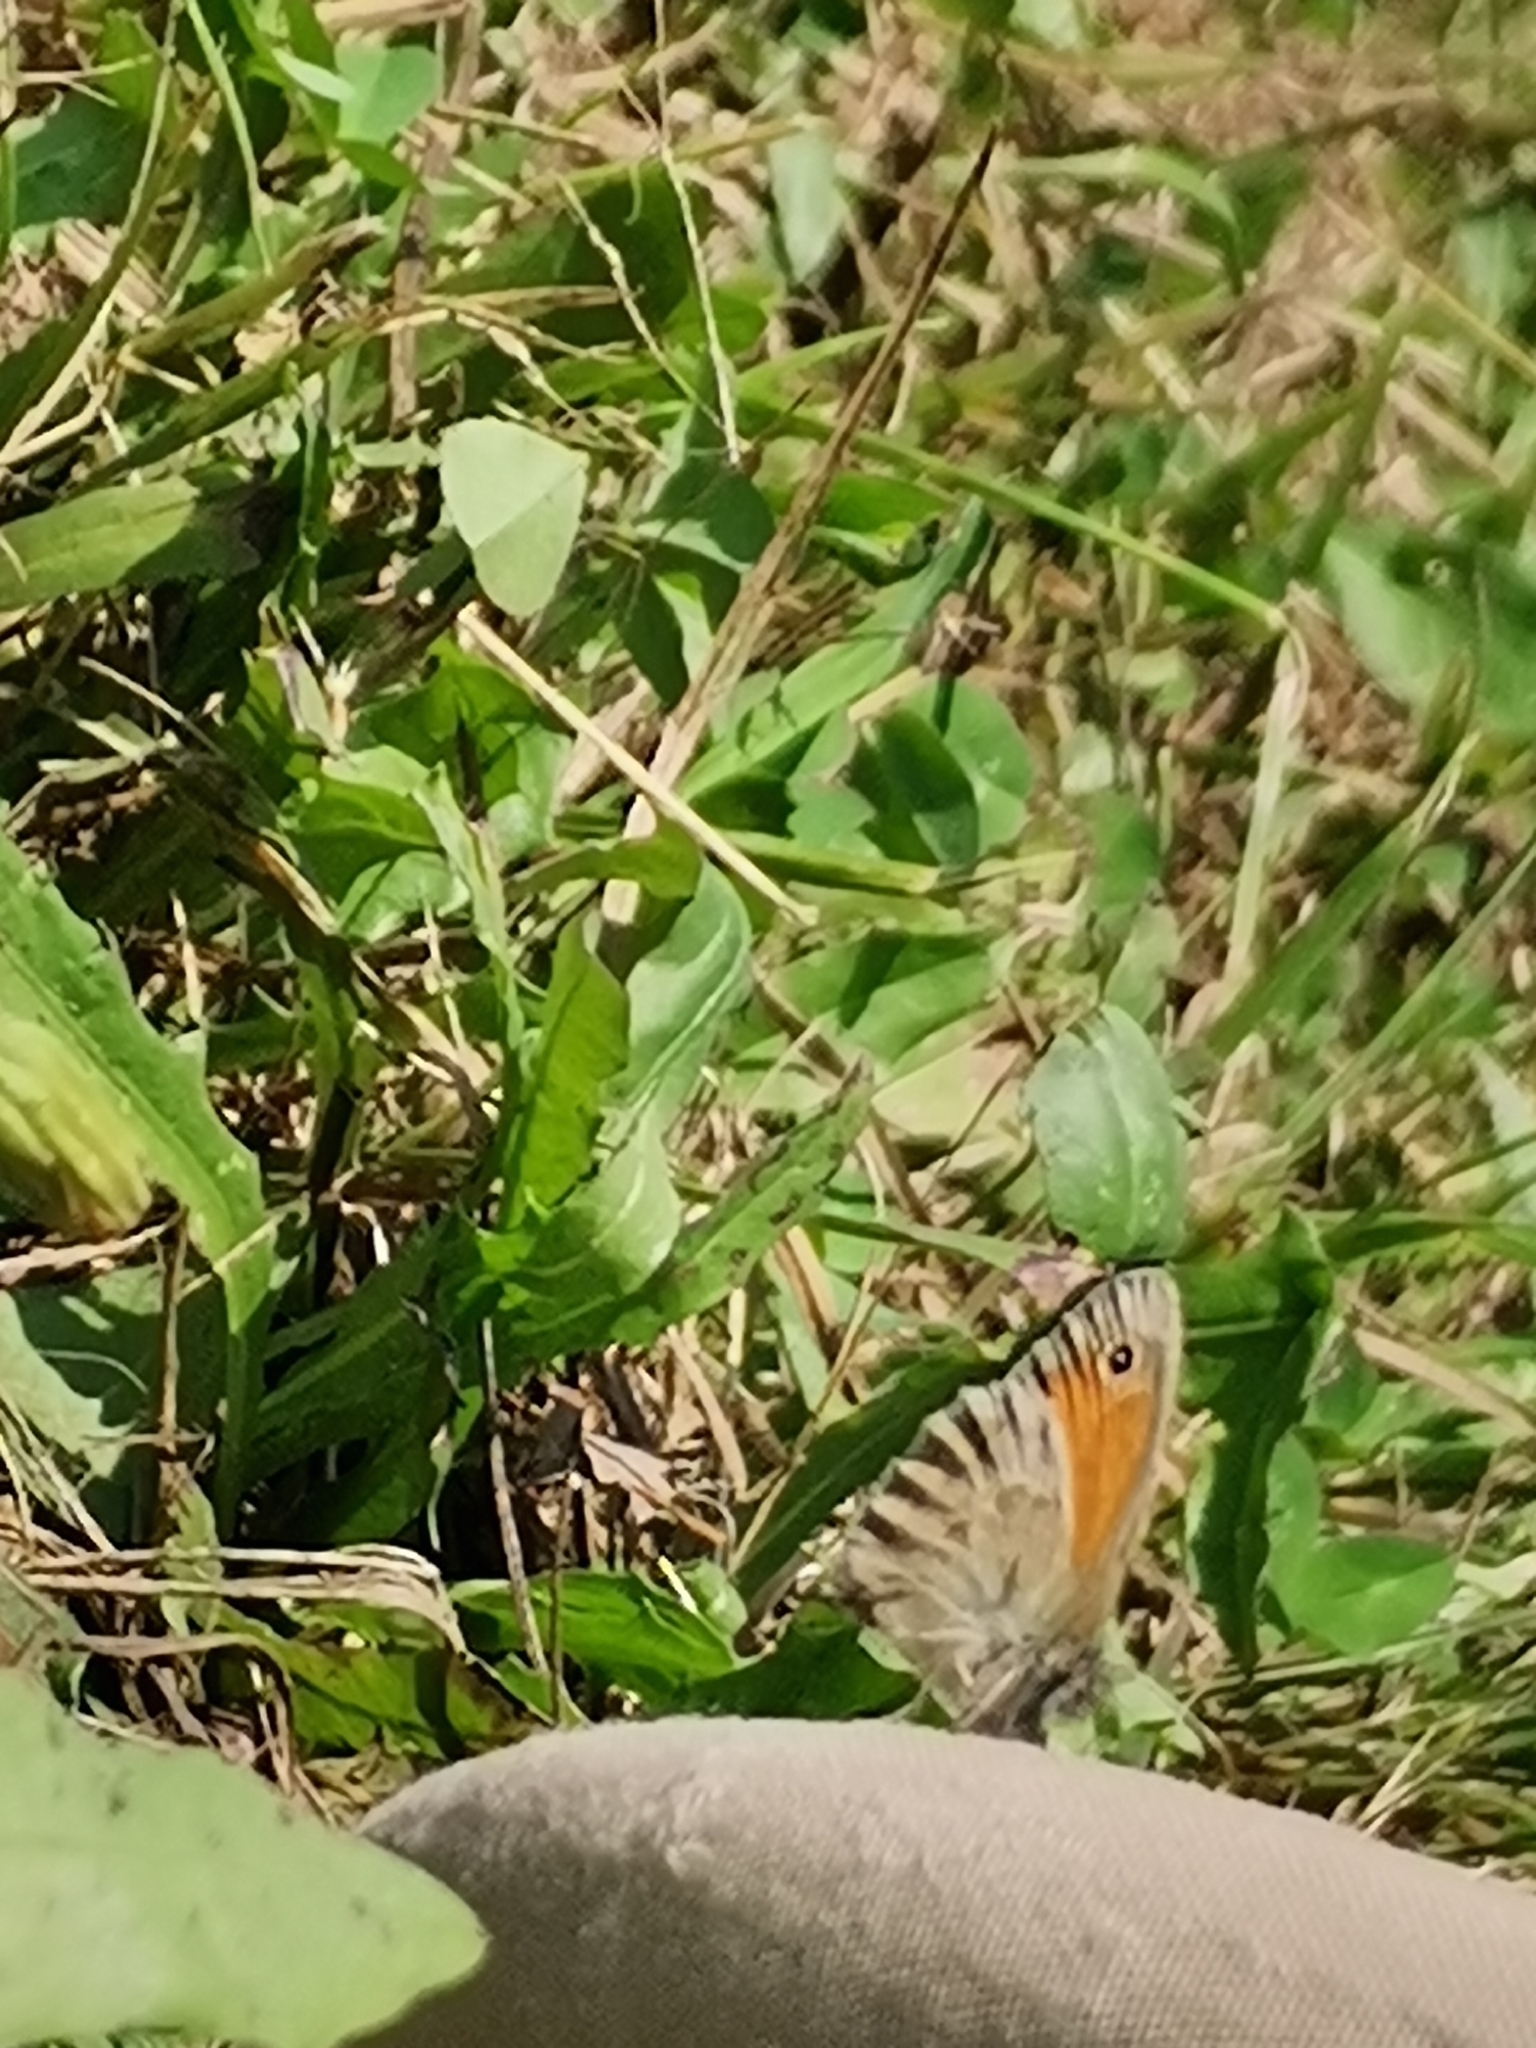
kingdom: Animalia
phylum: Arthropoda
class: Insecta
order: Lepidoptera
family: Nymphalidae
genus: Coenonympha
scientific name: Coenonympha pamphilus
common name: Small heath
